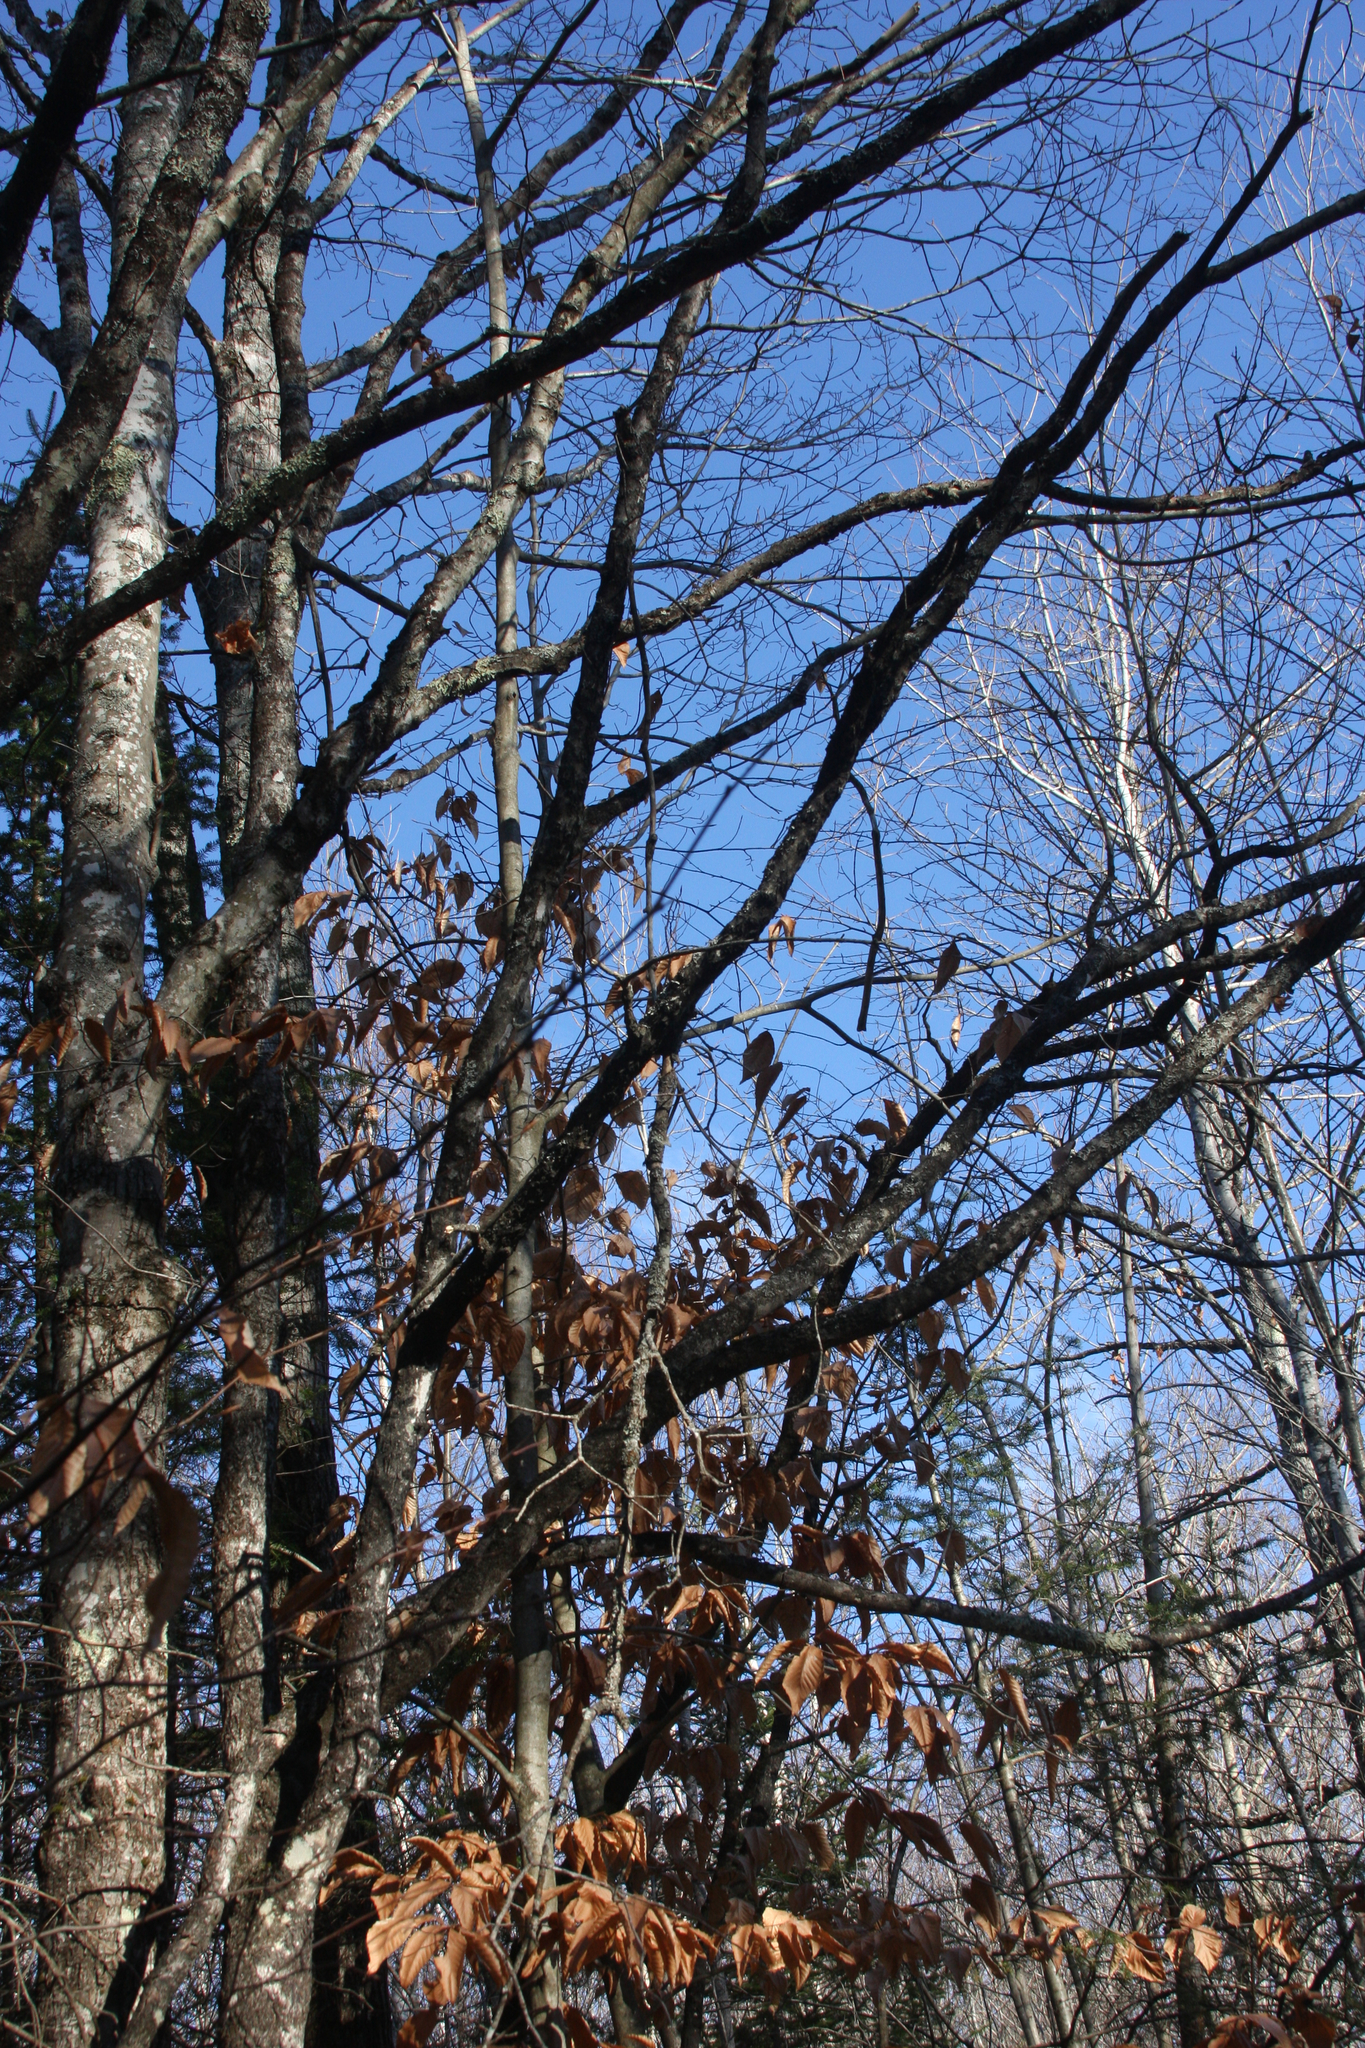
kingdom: Plantae
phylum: Tracheophyta
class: Magnoliopsida
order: Fagales
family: Fagaceae
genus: Fagus
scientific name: Fagus grandifolia
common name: American beech
